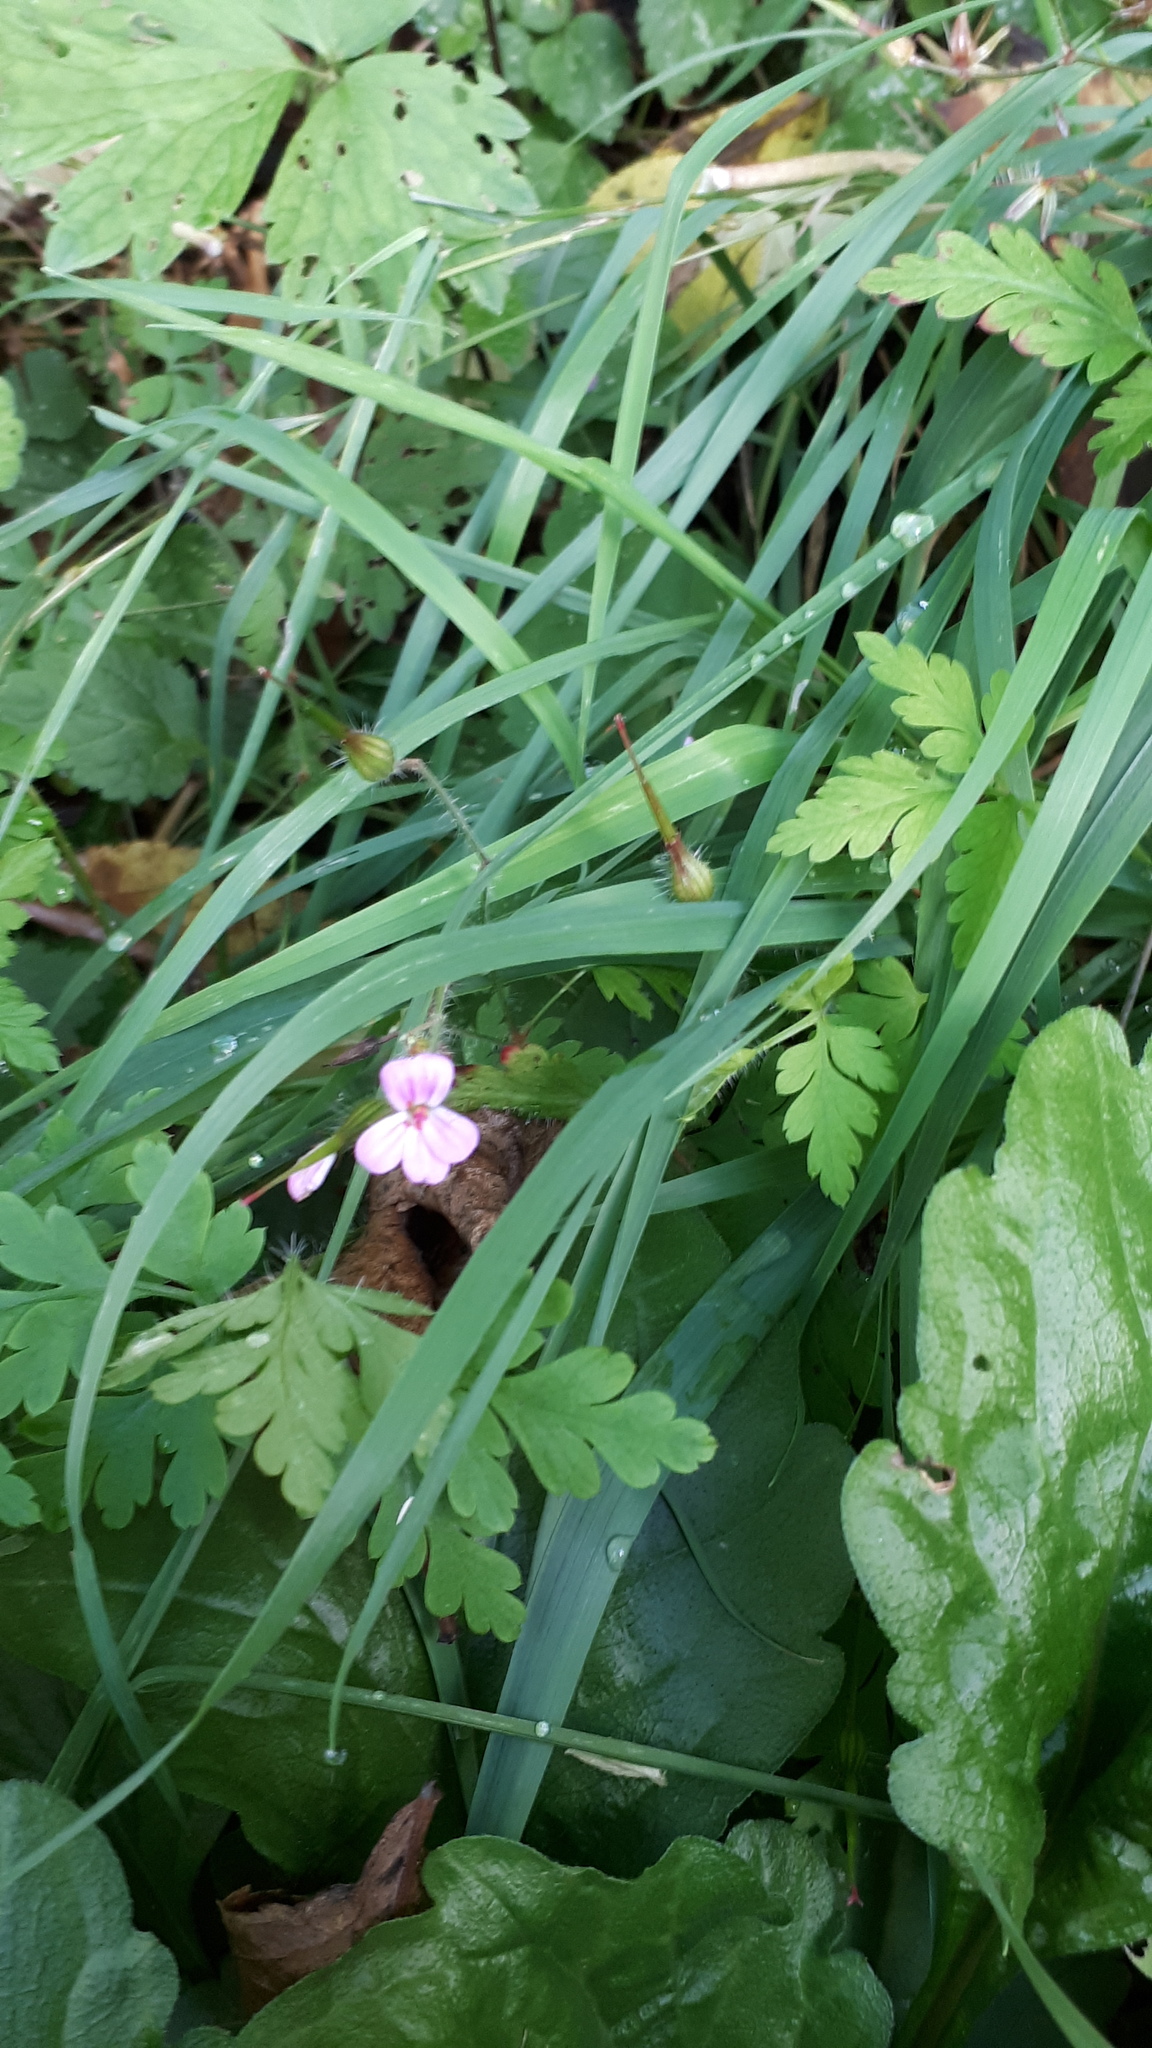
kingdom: Plantae
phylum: Tracheophyta
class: Magnoliopsida
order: Geraniales
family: Geraniaceae
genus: Geranium
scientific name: Geranium robertianum
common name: Herb-robert
